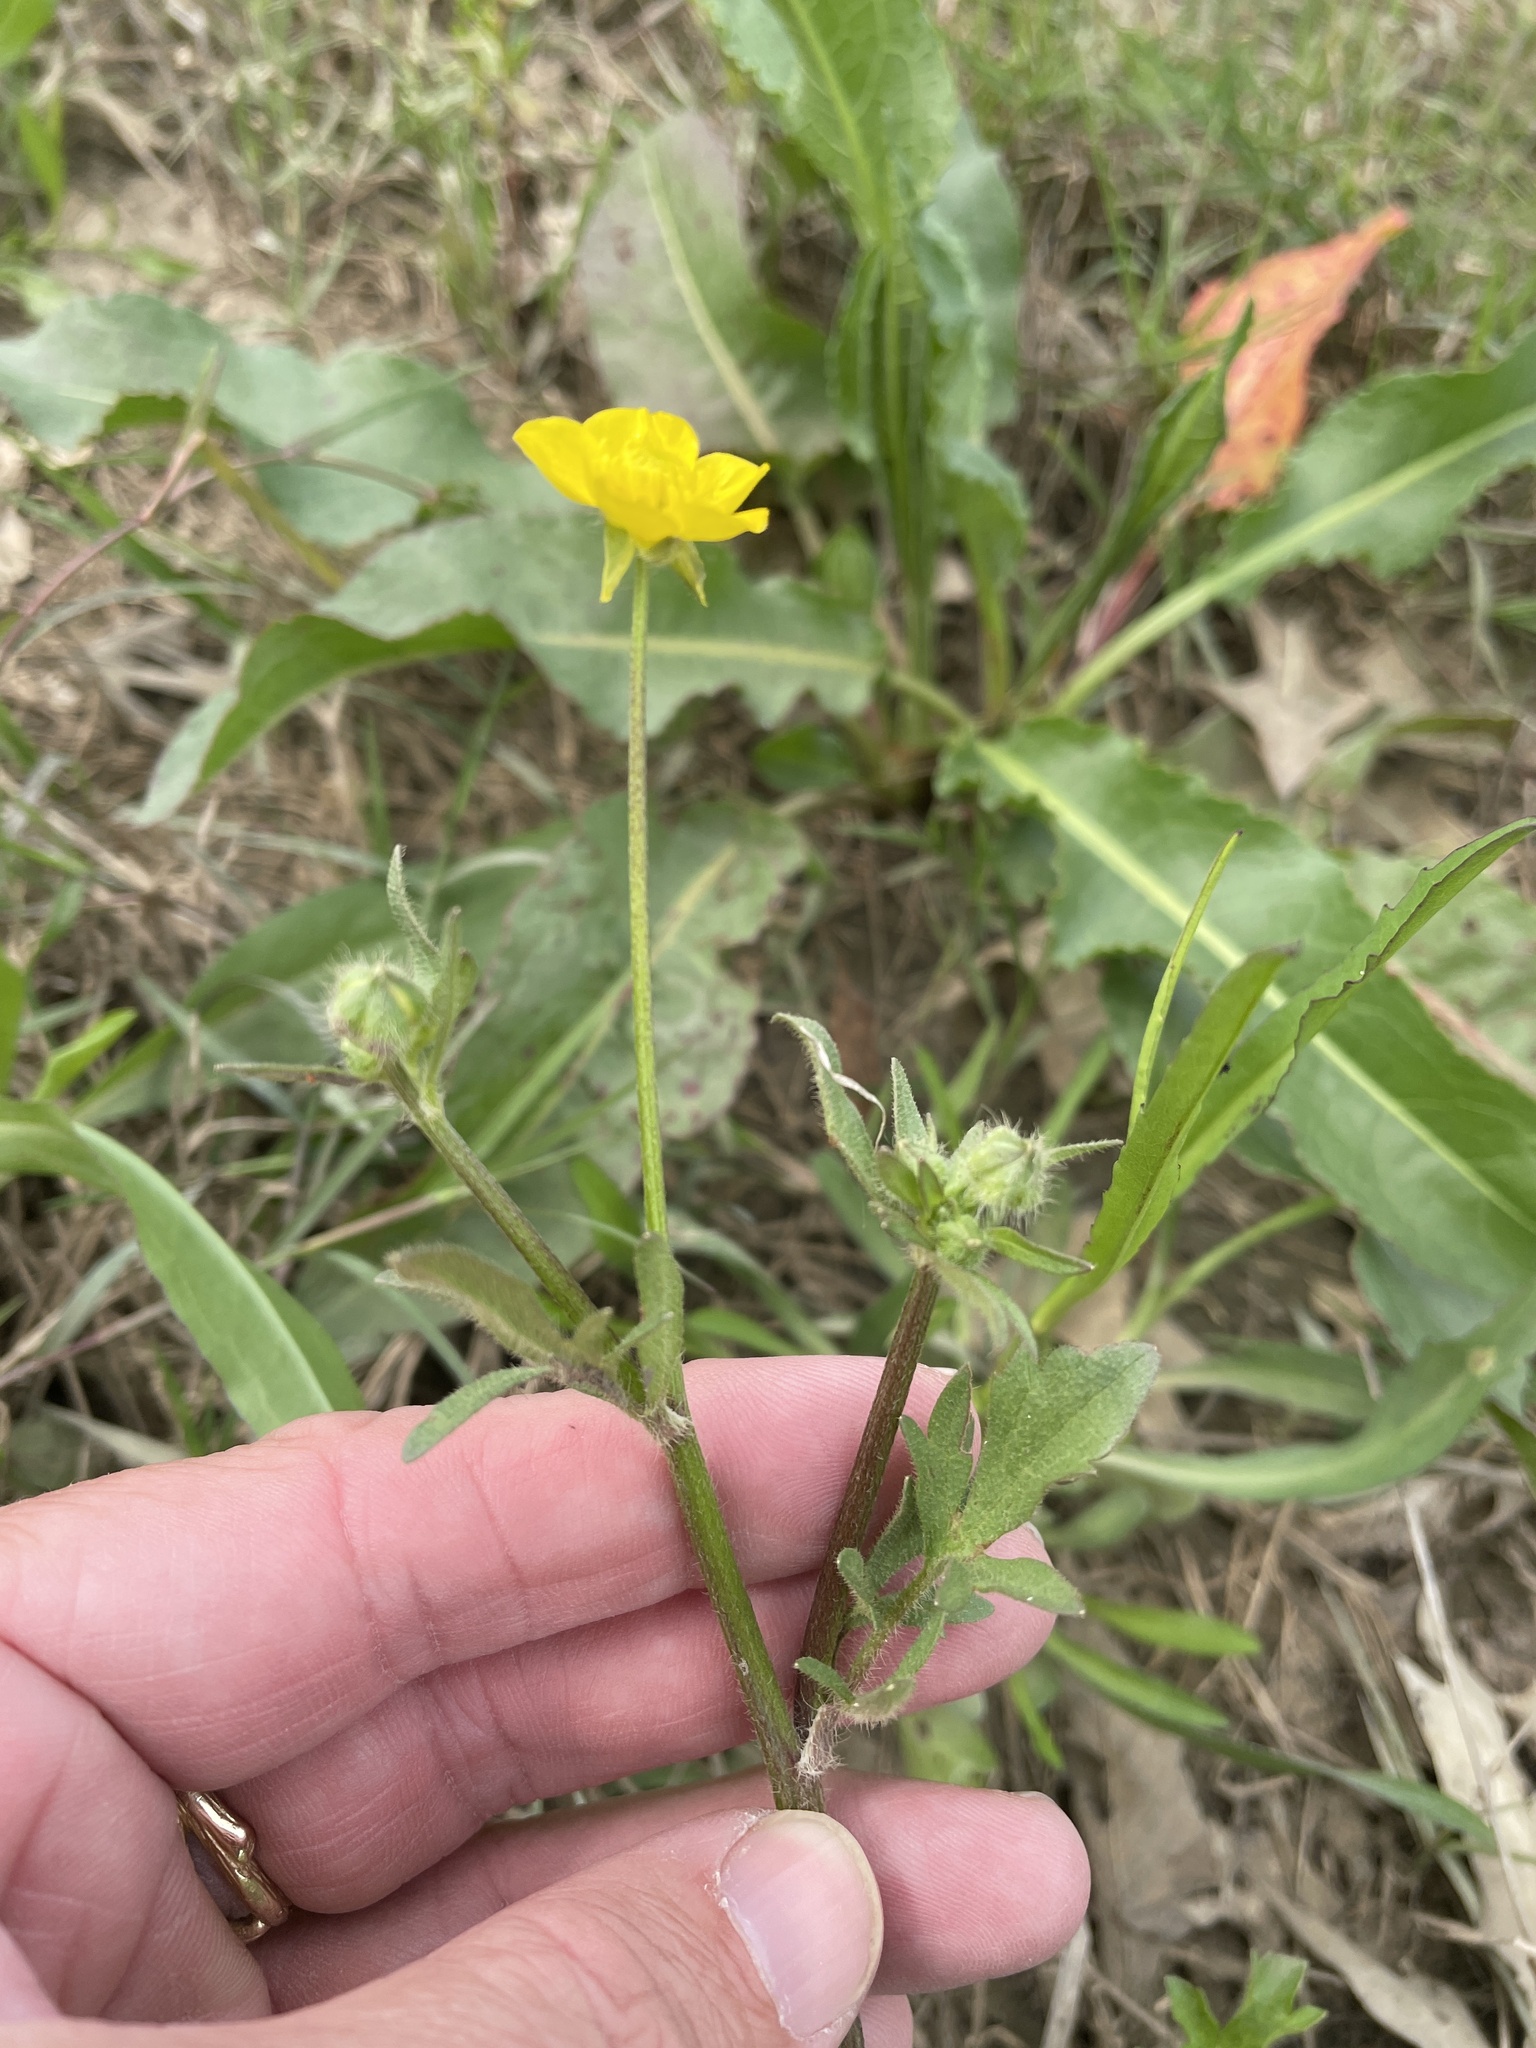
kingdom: Plantae
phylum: Tracheophyta
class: Magnoliopsida
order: Ranunculales
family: Ranunculaceae
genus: Ranunculus
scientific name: Ranunculus sardous
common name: Hairy buttercup
